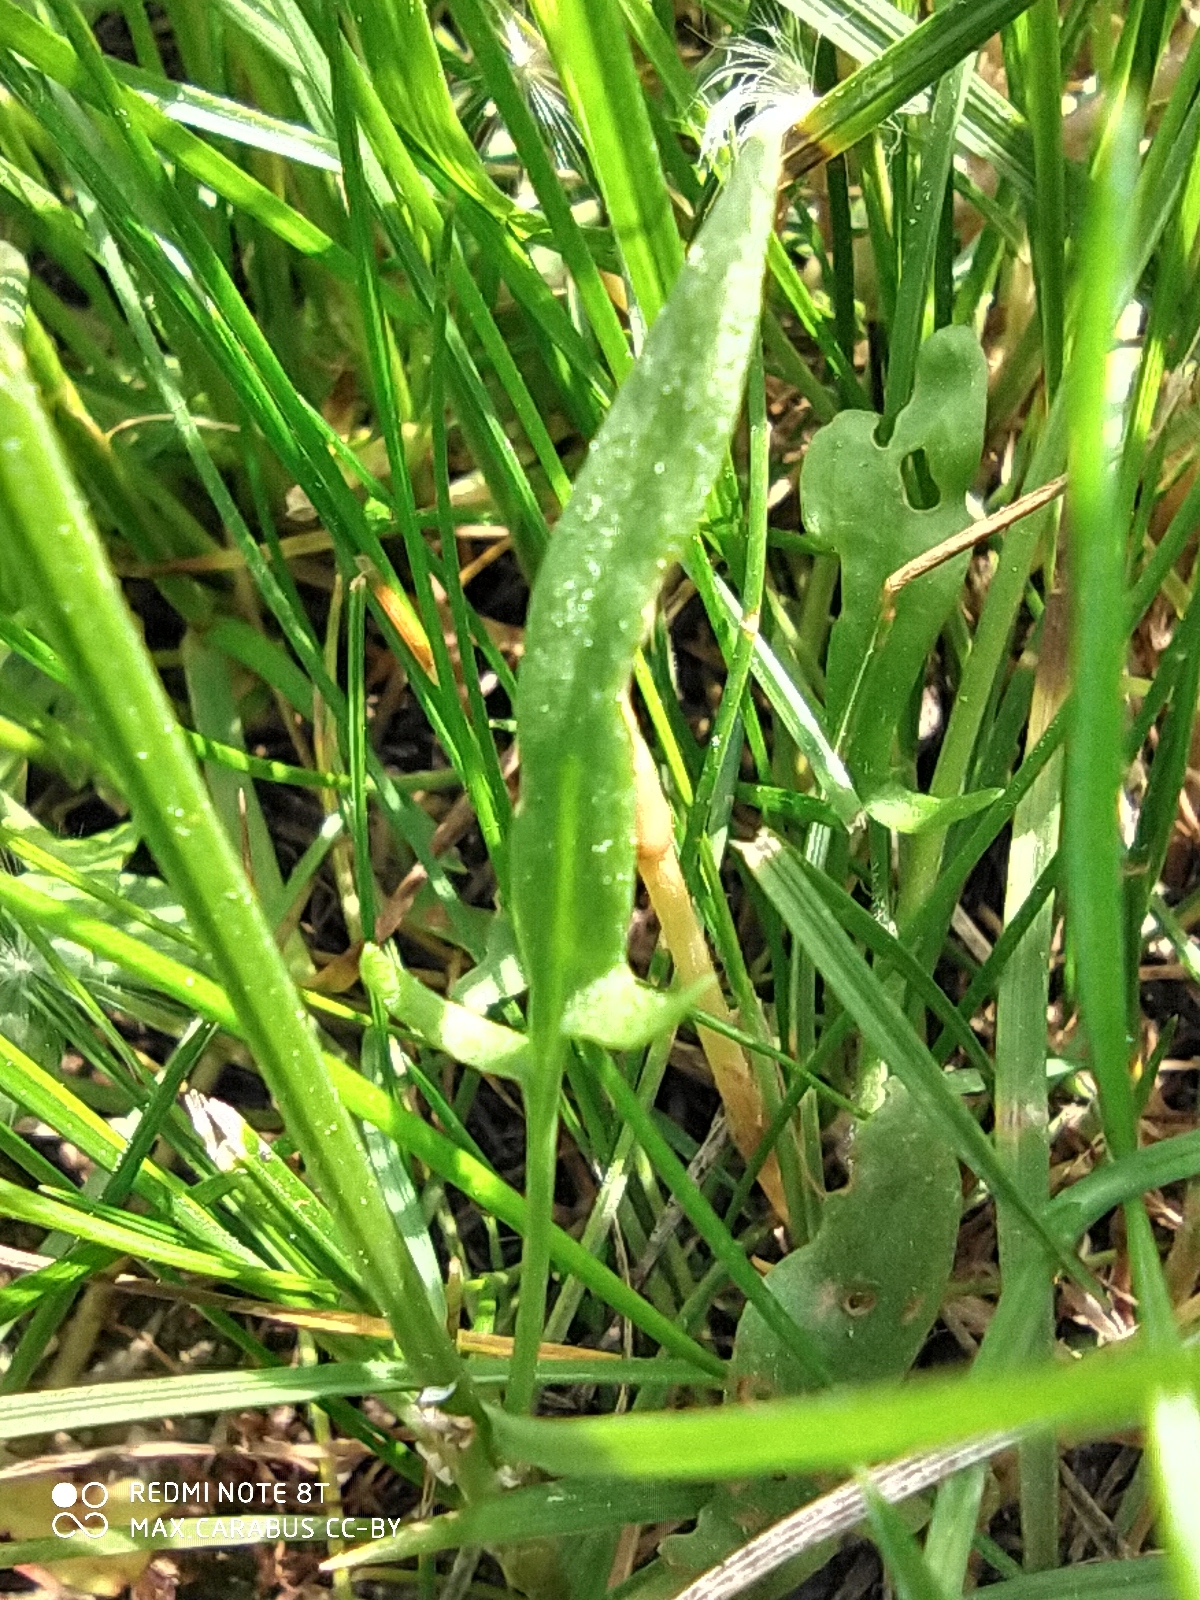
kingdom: Plantae
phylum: Tracheophyta
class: Magnoliopsida
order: Caryophyllales
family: Polygonaceae
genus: Rumex
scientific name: Rumex acetosella
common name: Common sheep sorrel
